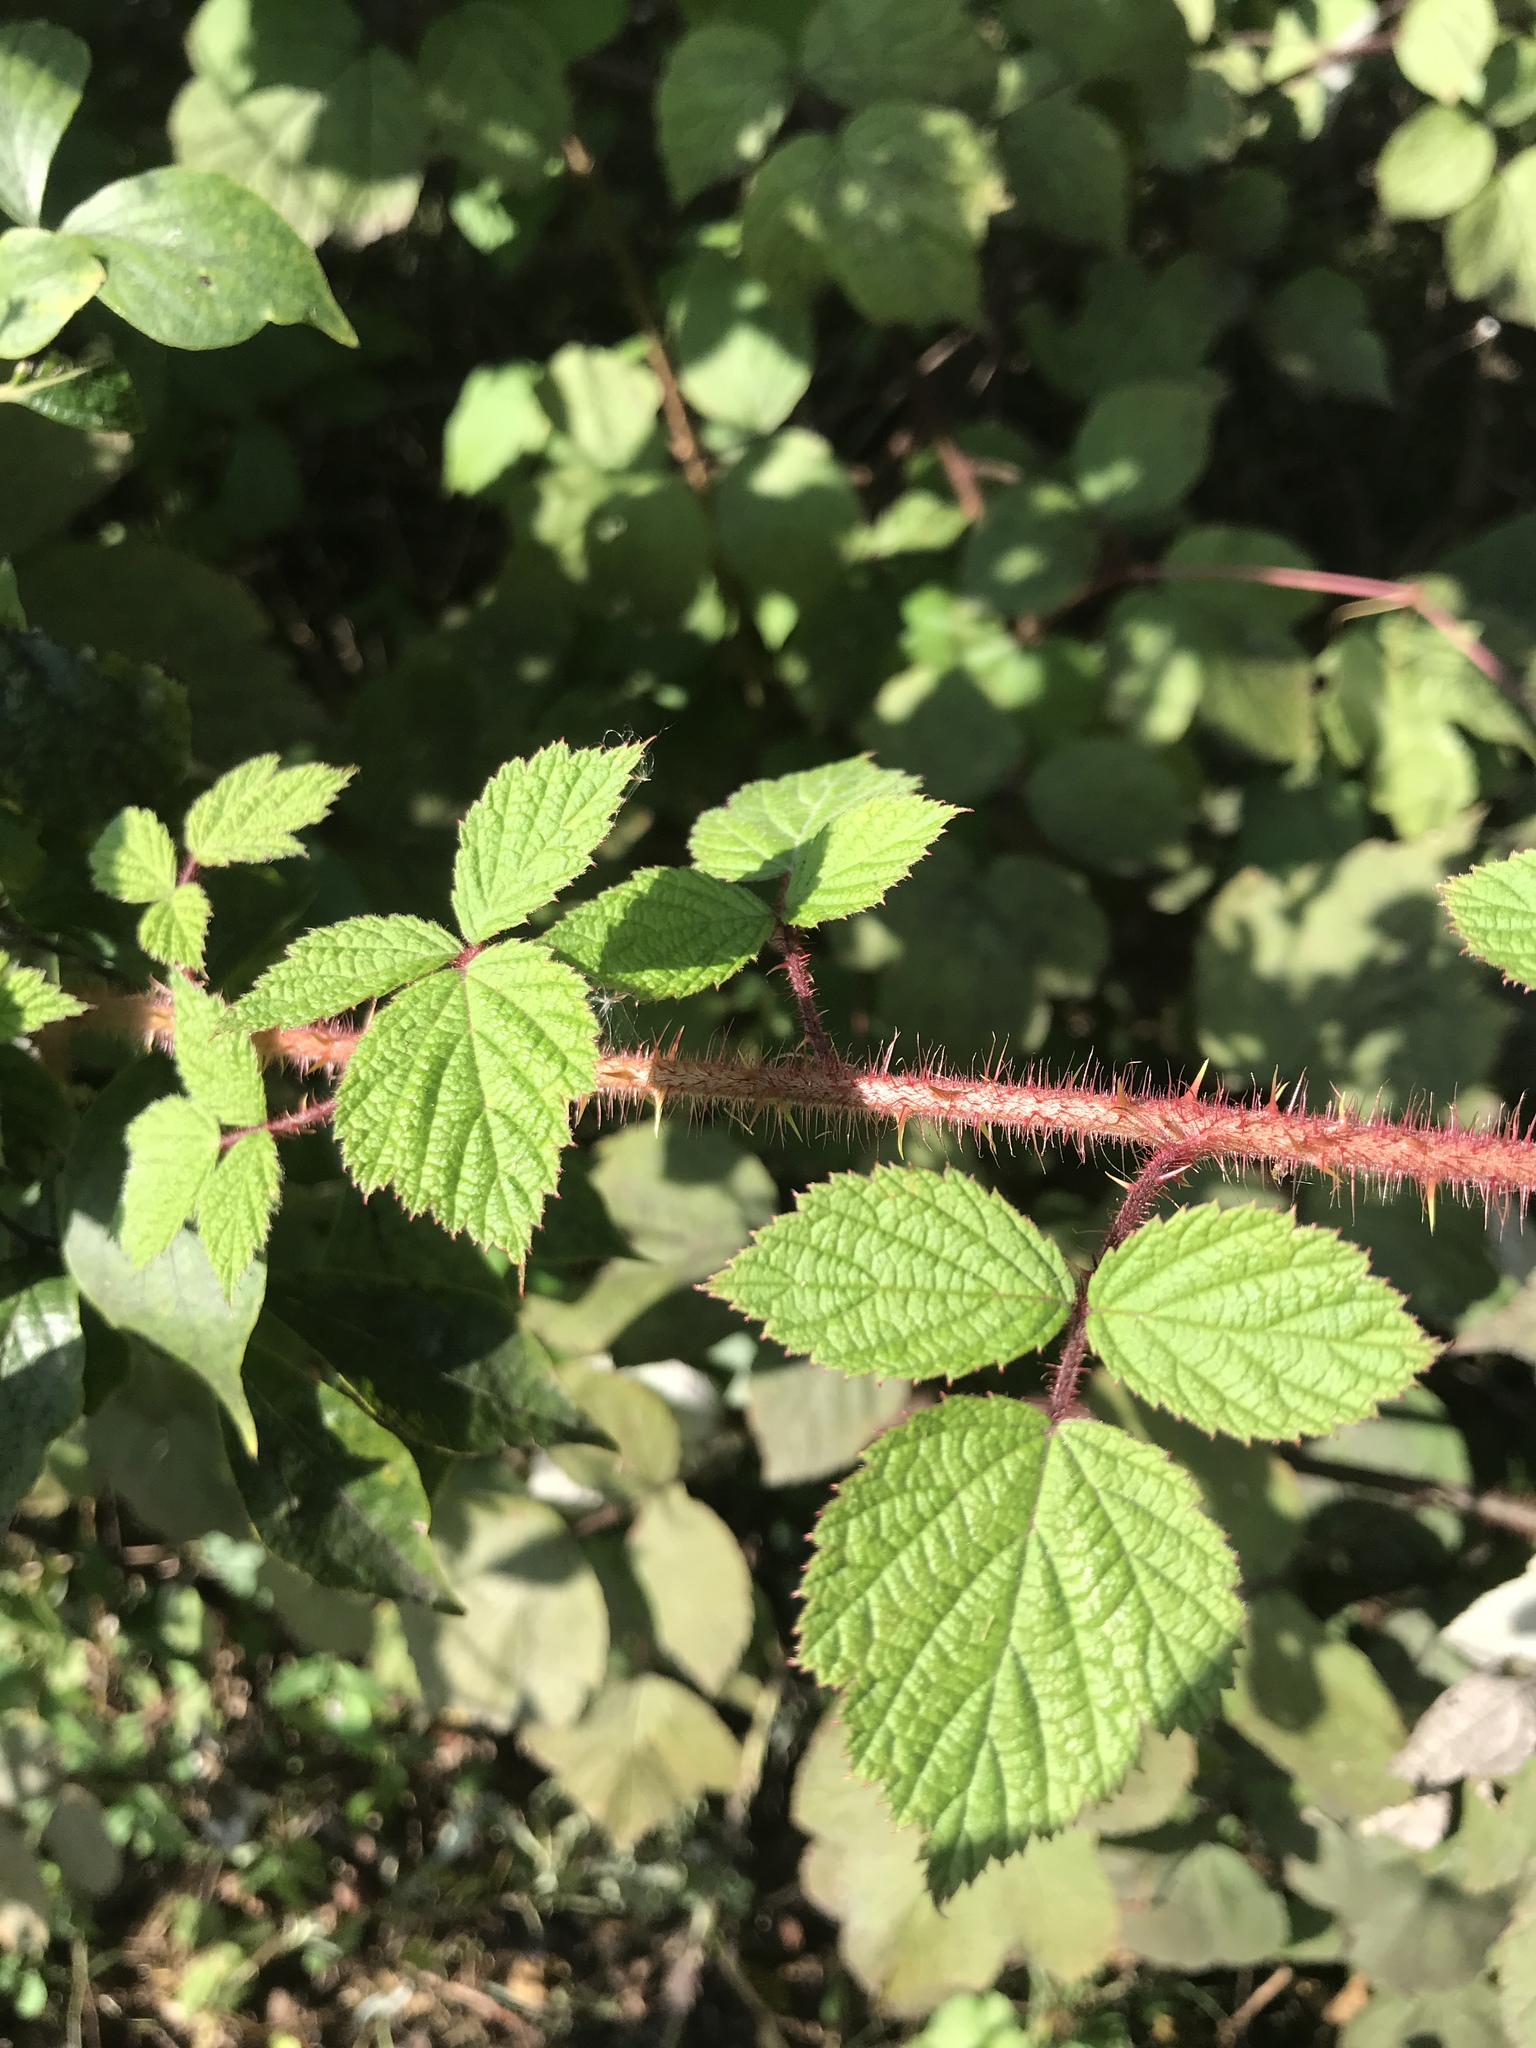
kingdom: Plantae
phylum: Tracheophyta
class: Magnoliopsida
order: Rosales
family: Rosaceae
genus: Rubus
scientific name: Rubus phoenicolasius
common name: Japanese wineberry
